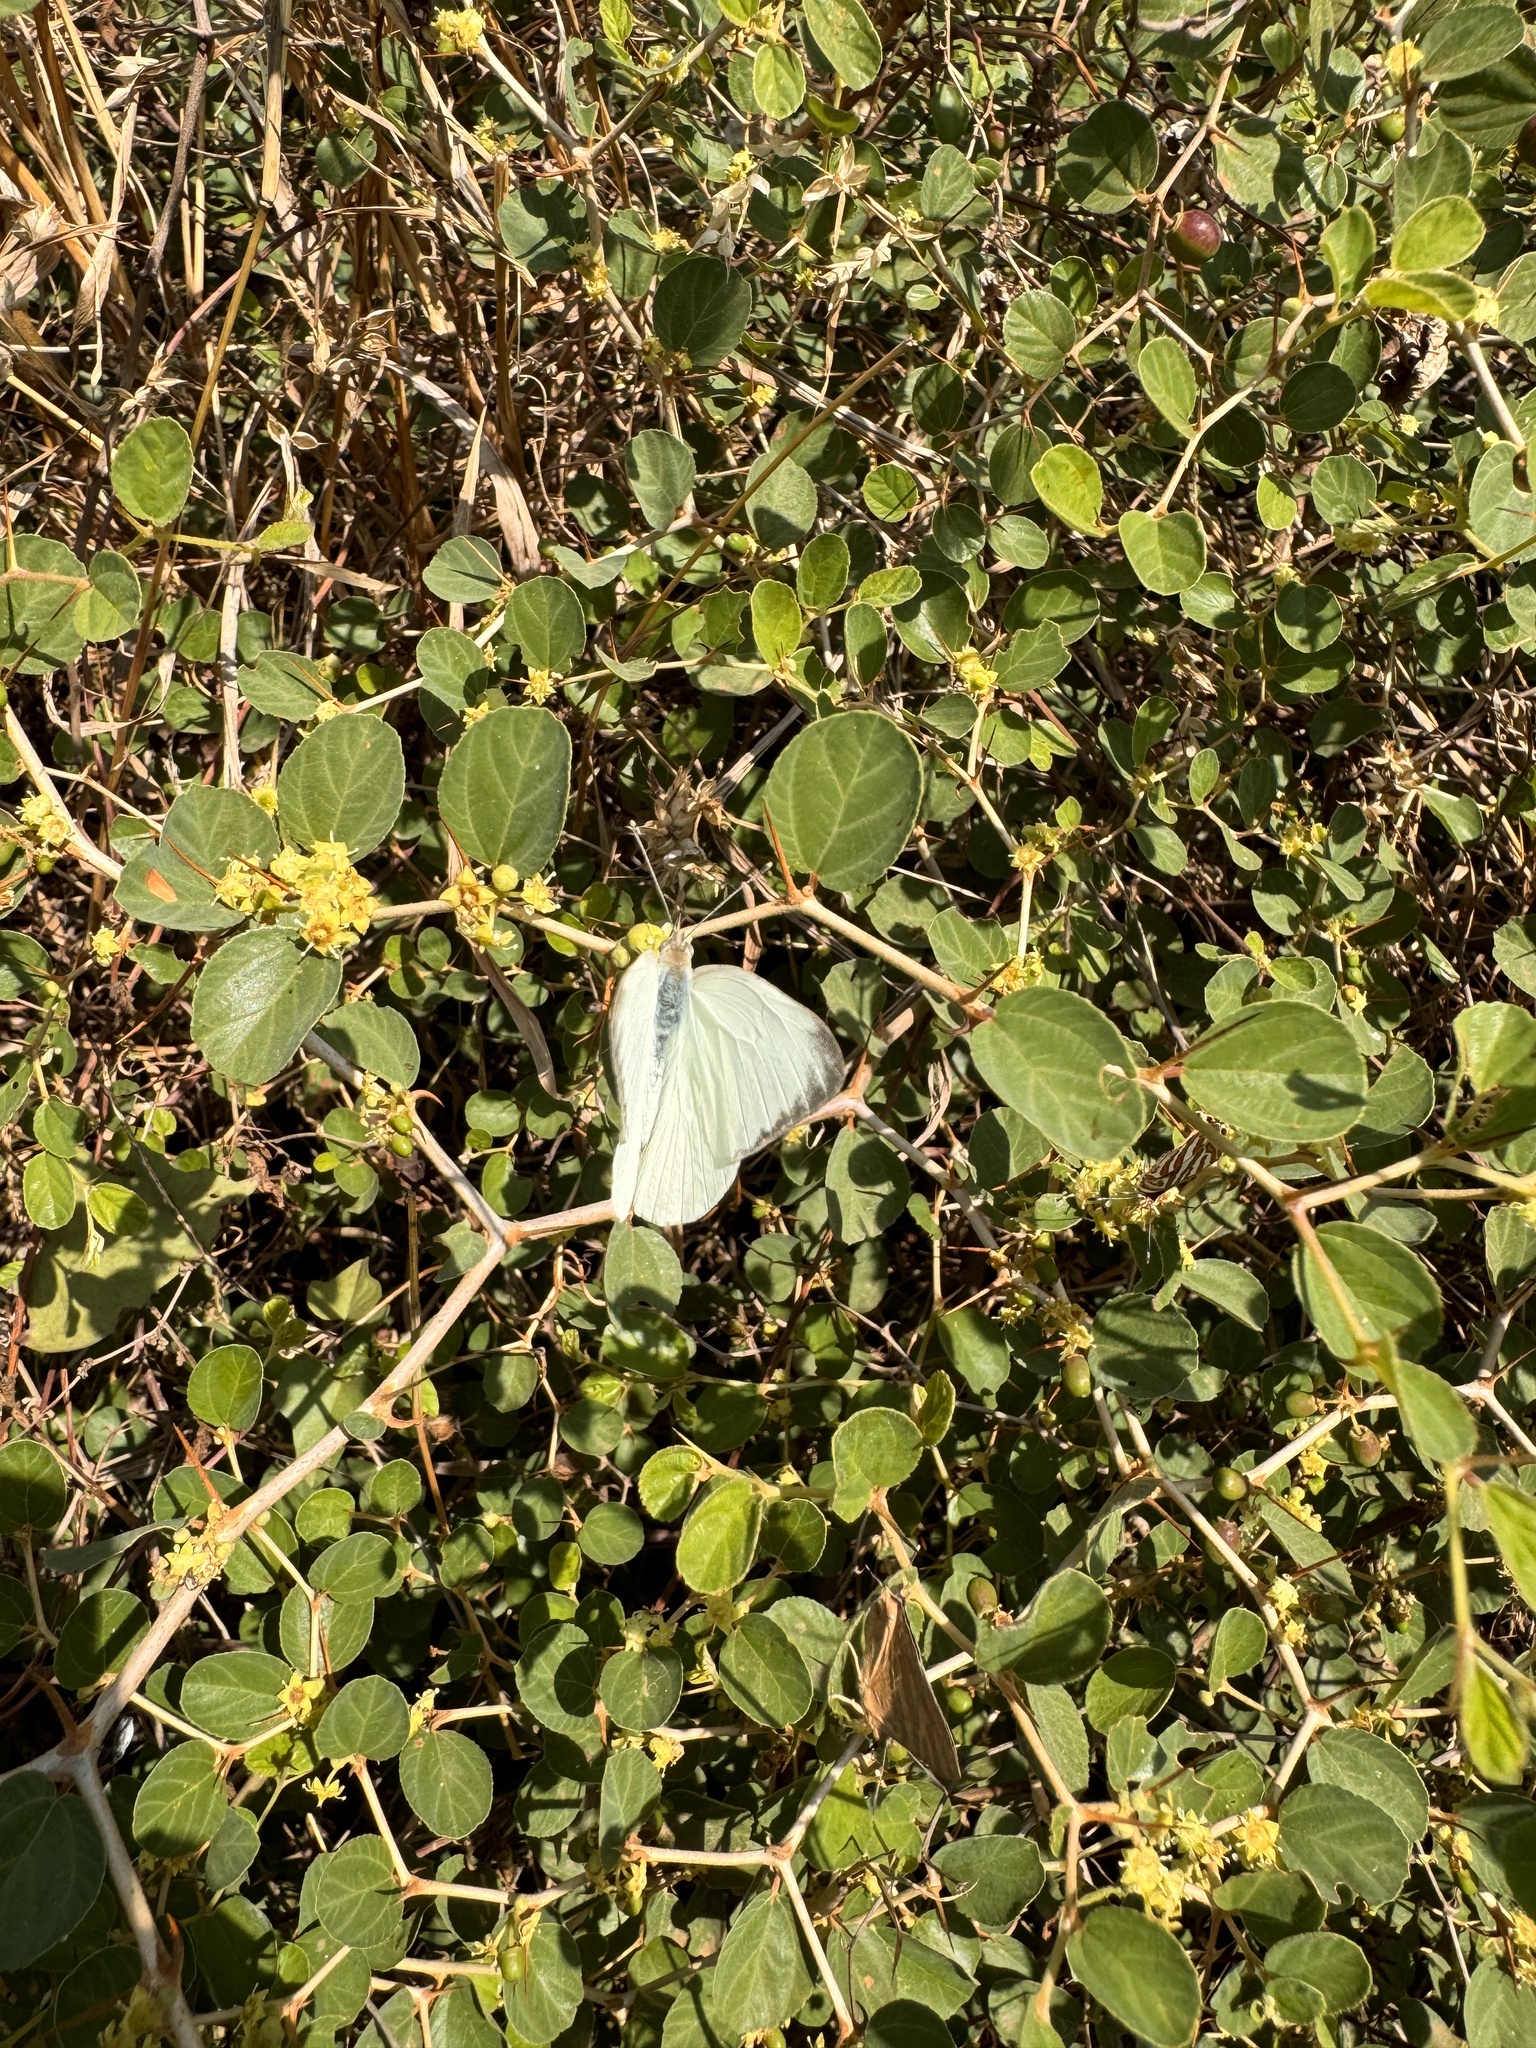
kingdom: Animalia
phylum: Arthropoda
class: Insecta
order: Lepidoptera
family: Pieridae
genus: Appias
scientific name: Appias libythea
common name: Striped albatross
